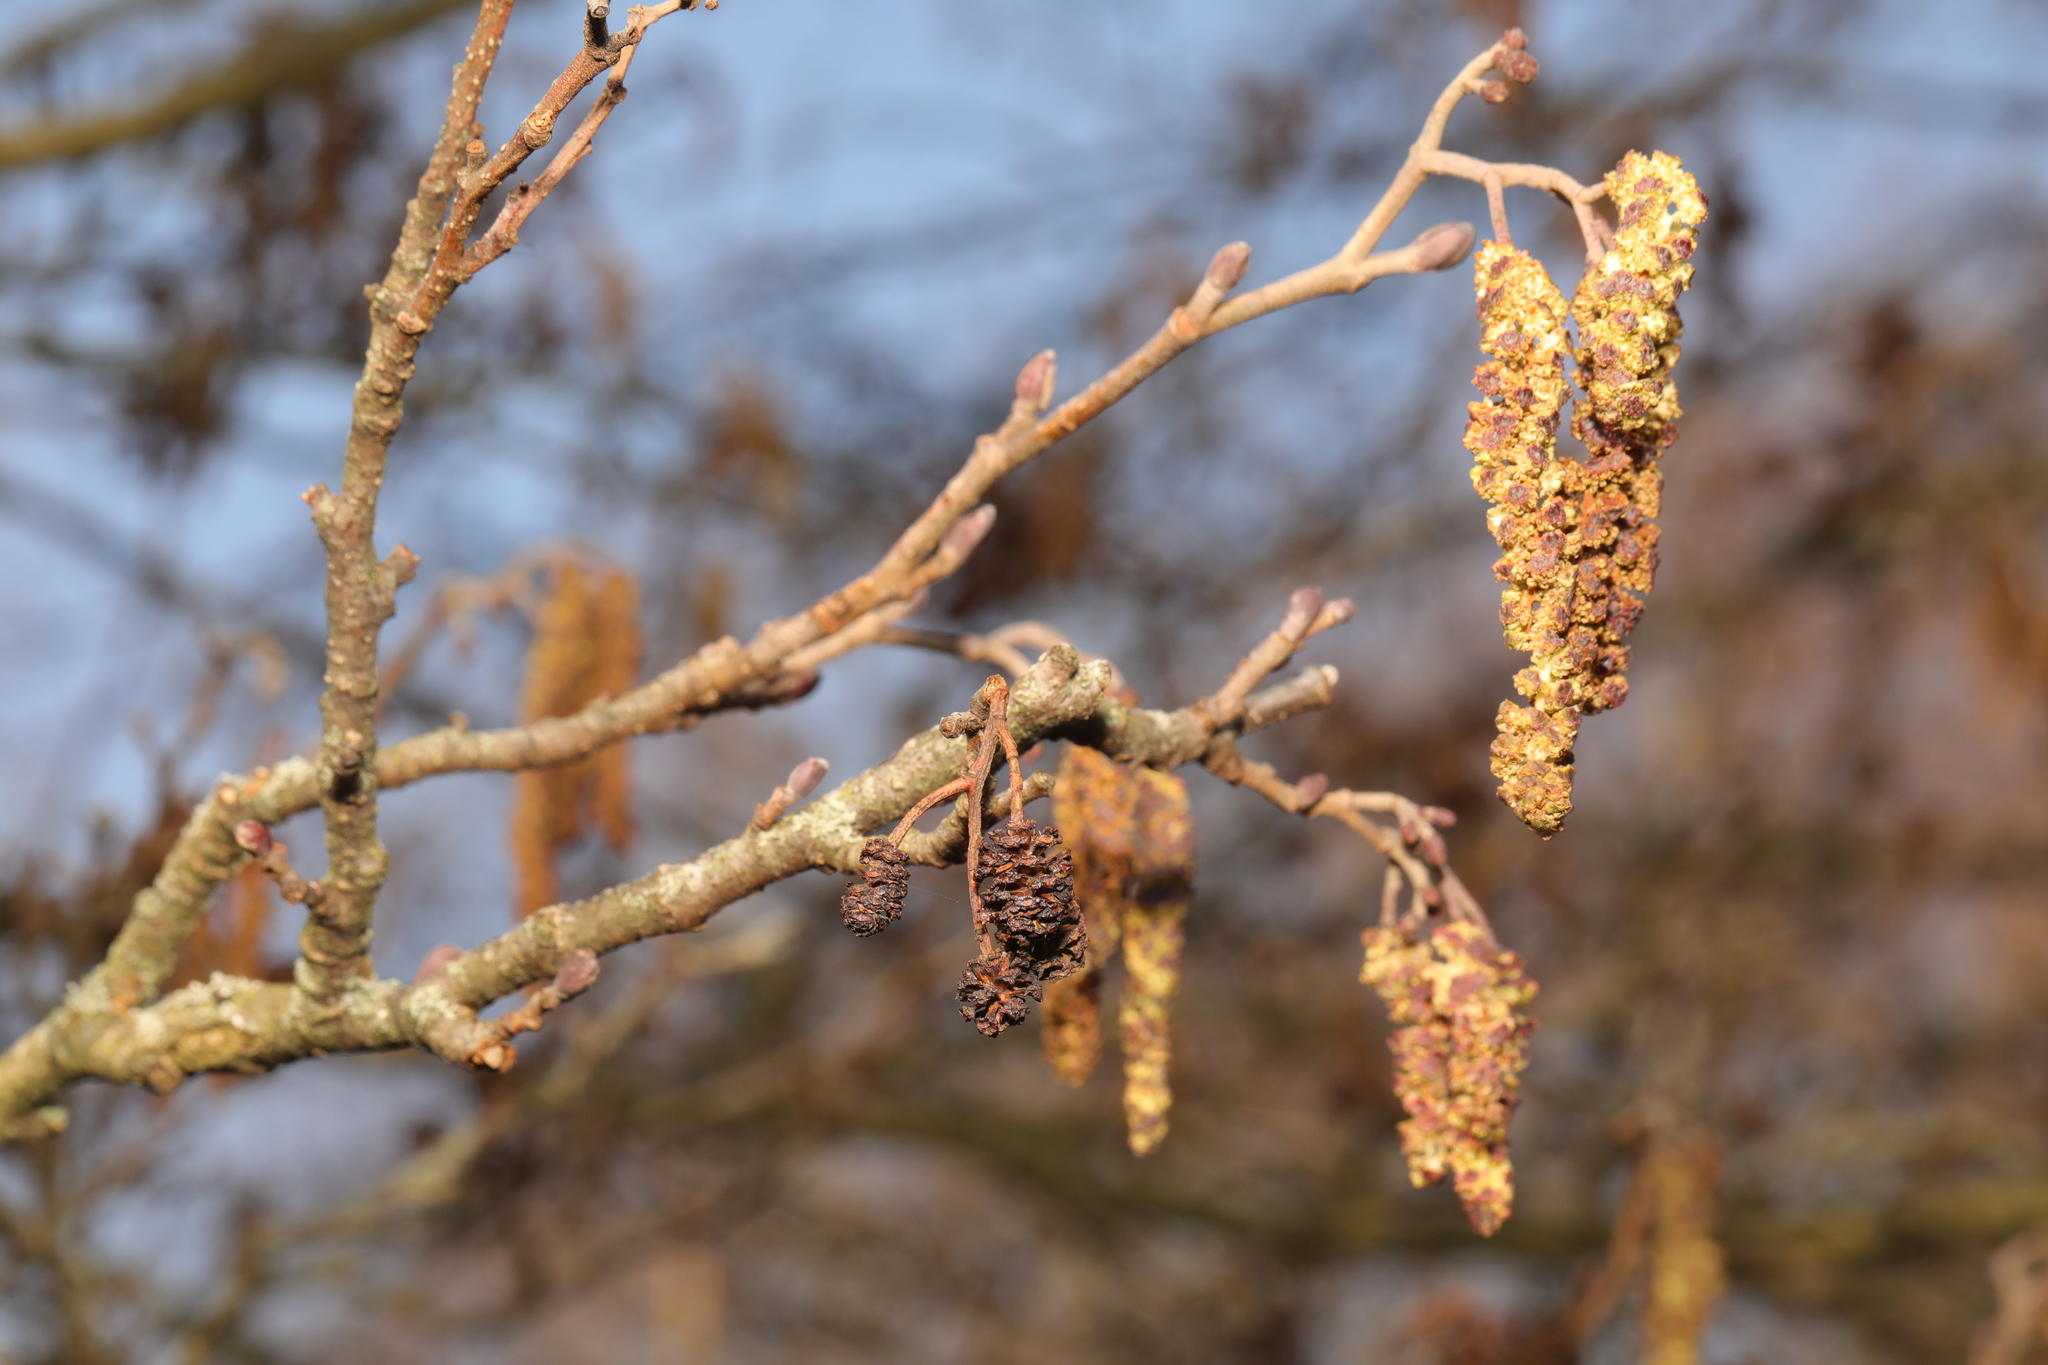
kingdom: Plantae
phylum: Tracheophyta
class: Magnoliopsida
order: Fagales
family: Betulaceae
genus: Alnus
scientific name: Alnus glutinosa
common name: Black alder
